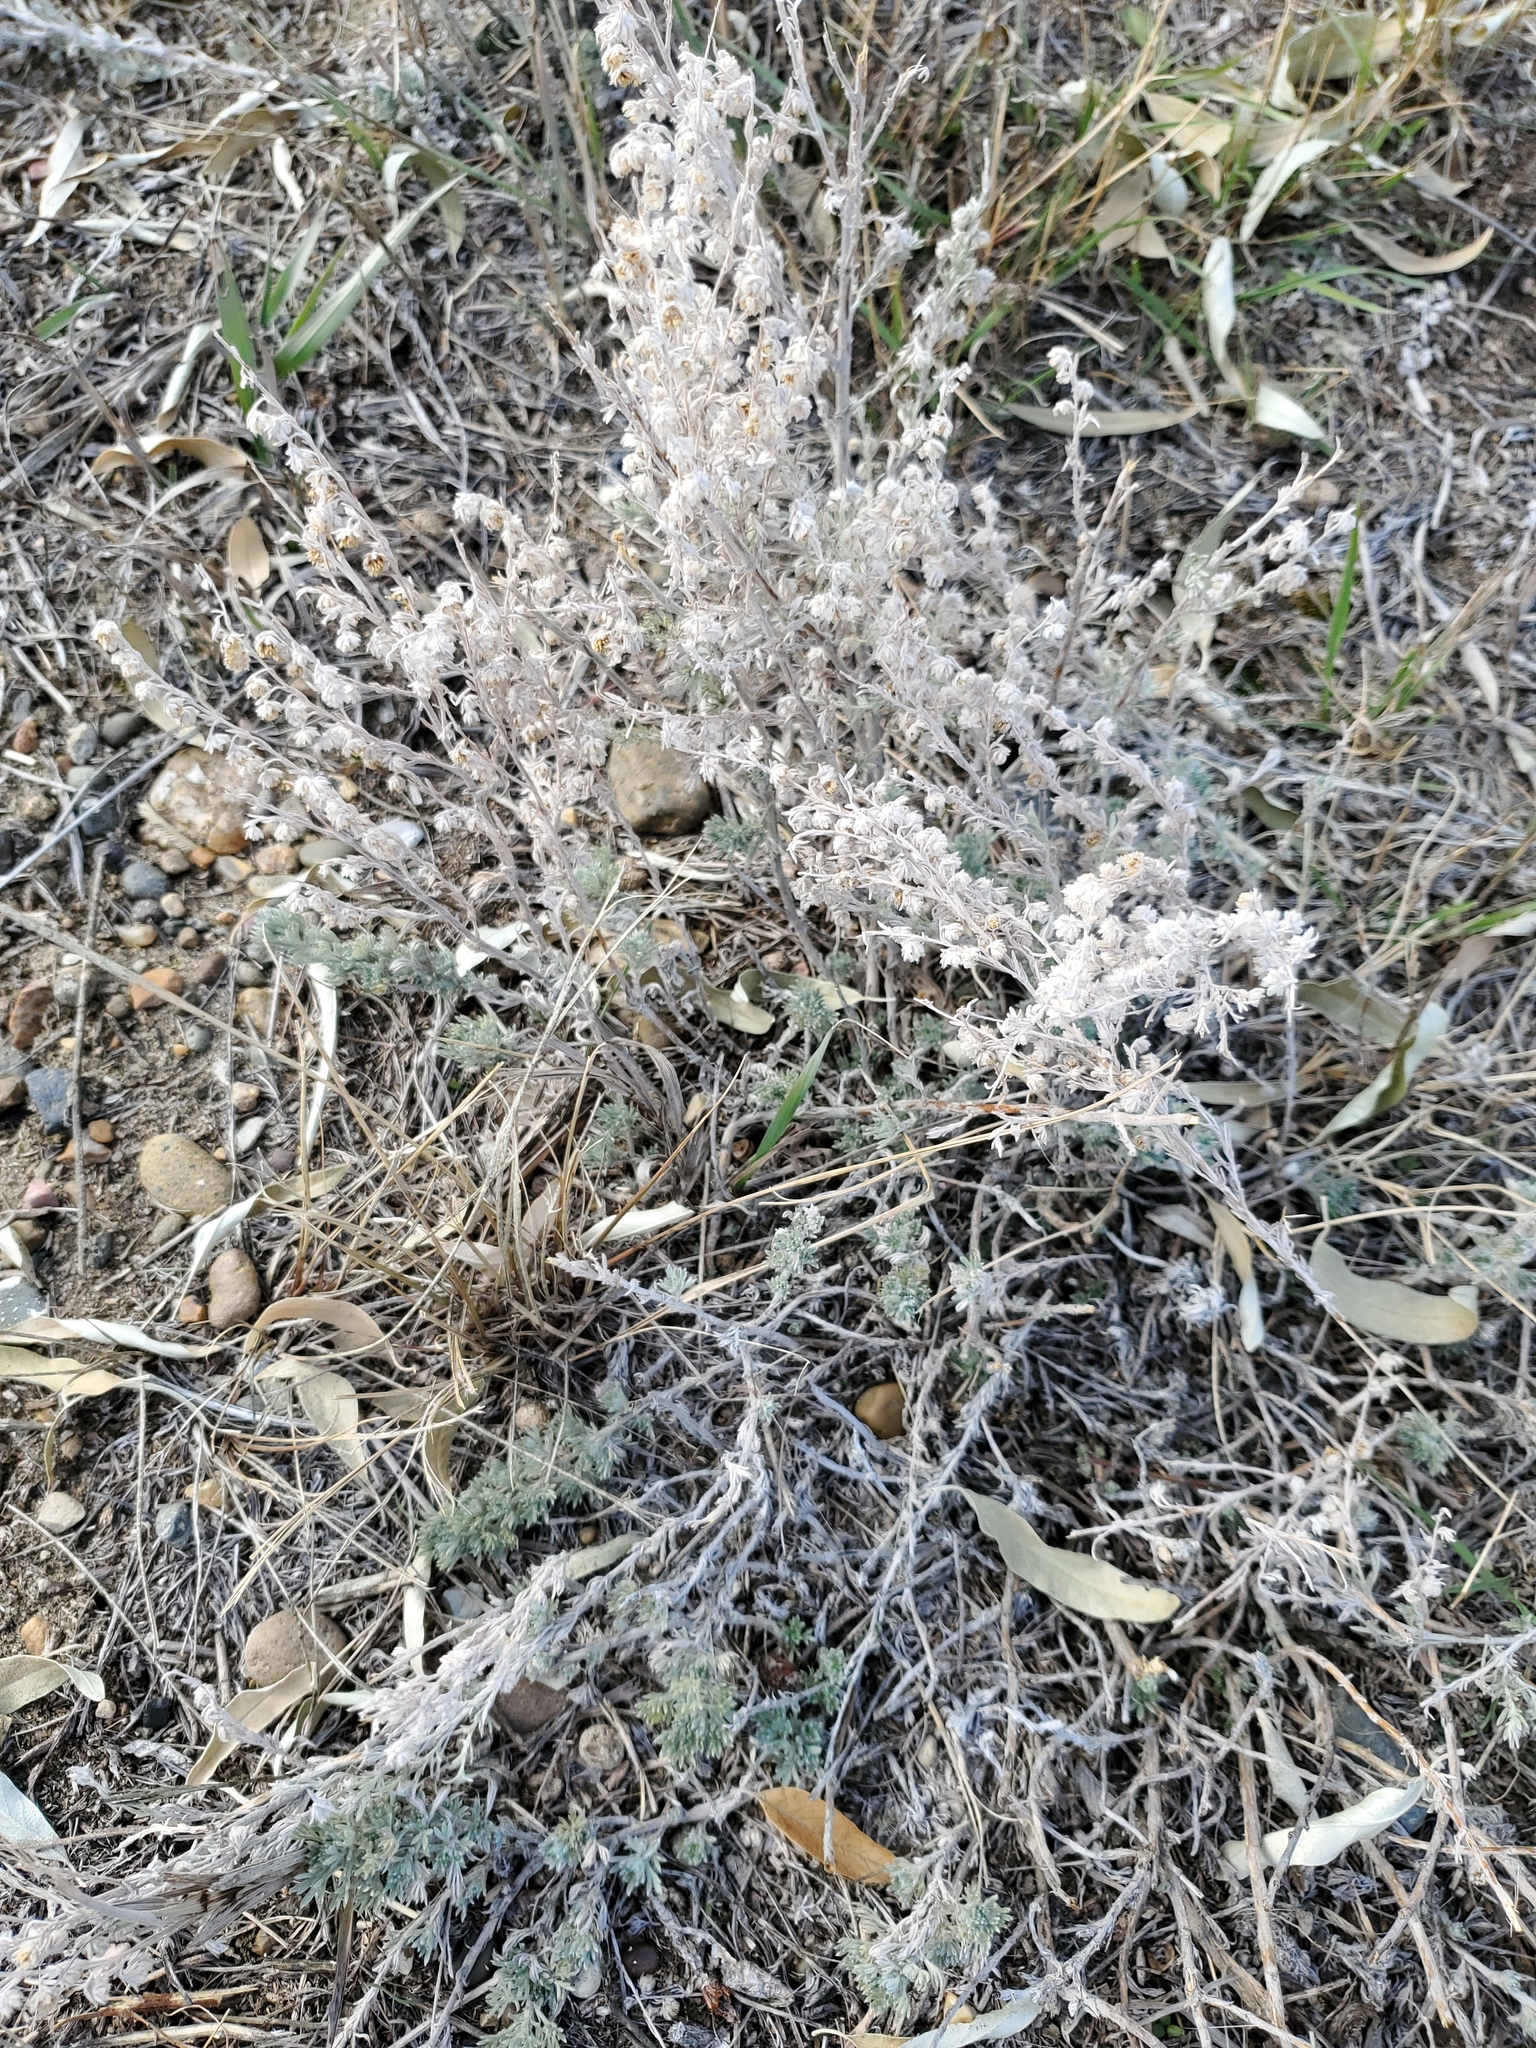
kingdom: Plantae
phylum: Tracheophyta
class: Magnoliopsida
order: Asterales
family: Asteraceae
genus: Artemisia
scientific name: Artemisia frigida
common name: Prairie sagewort
